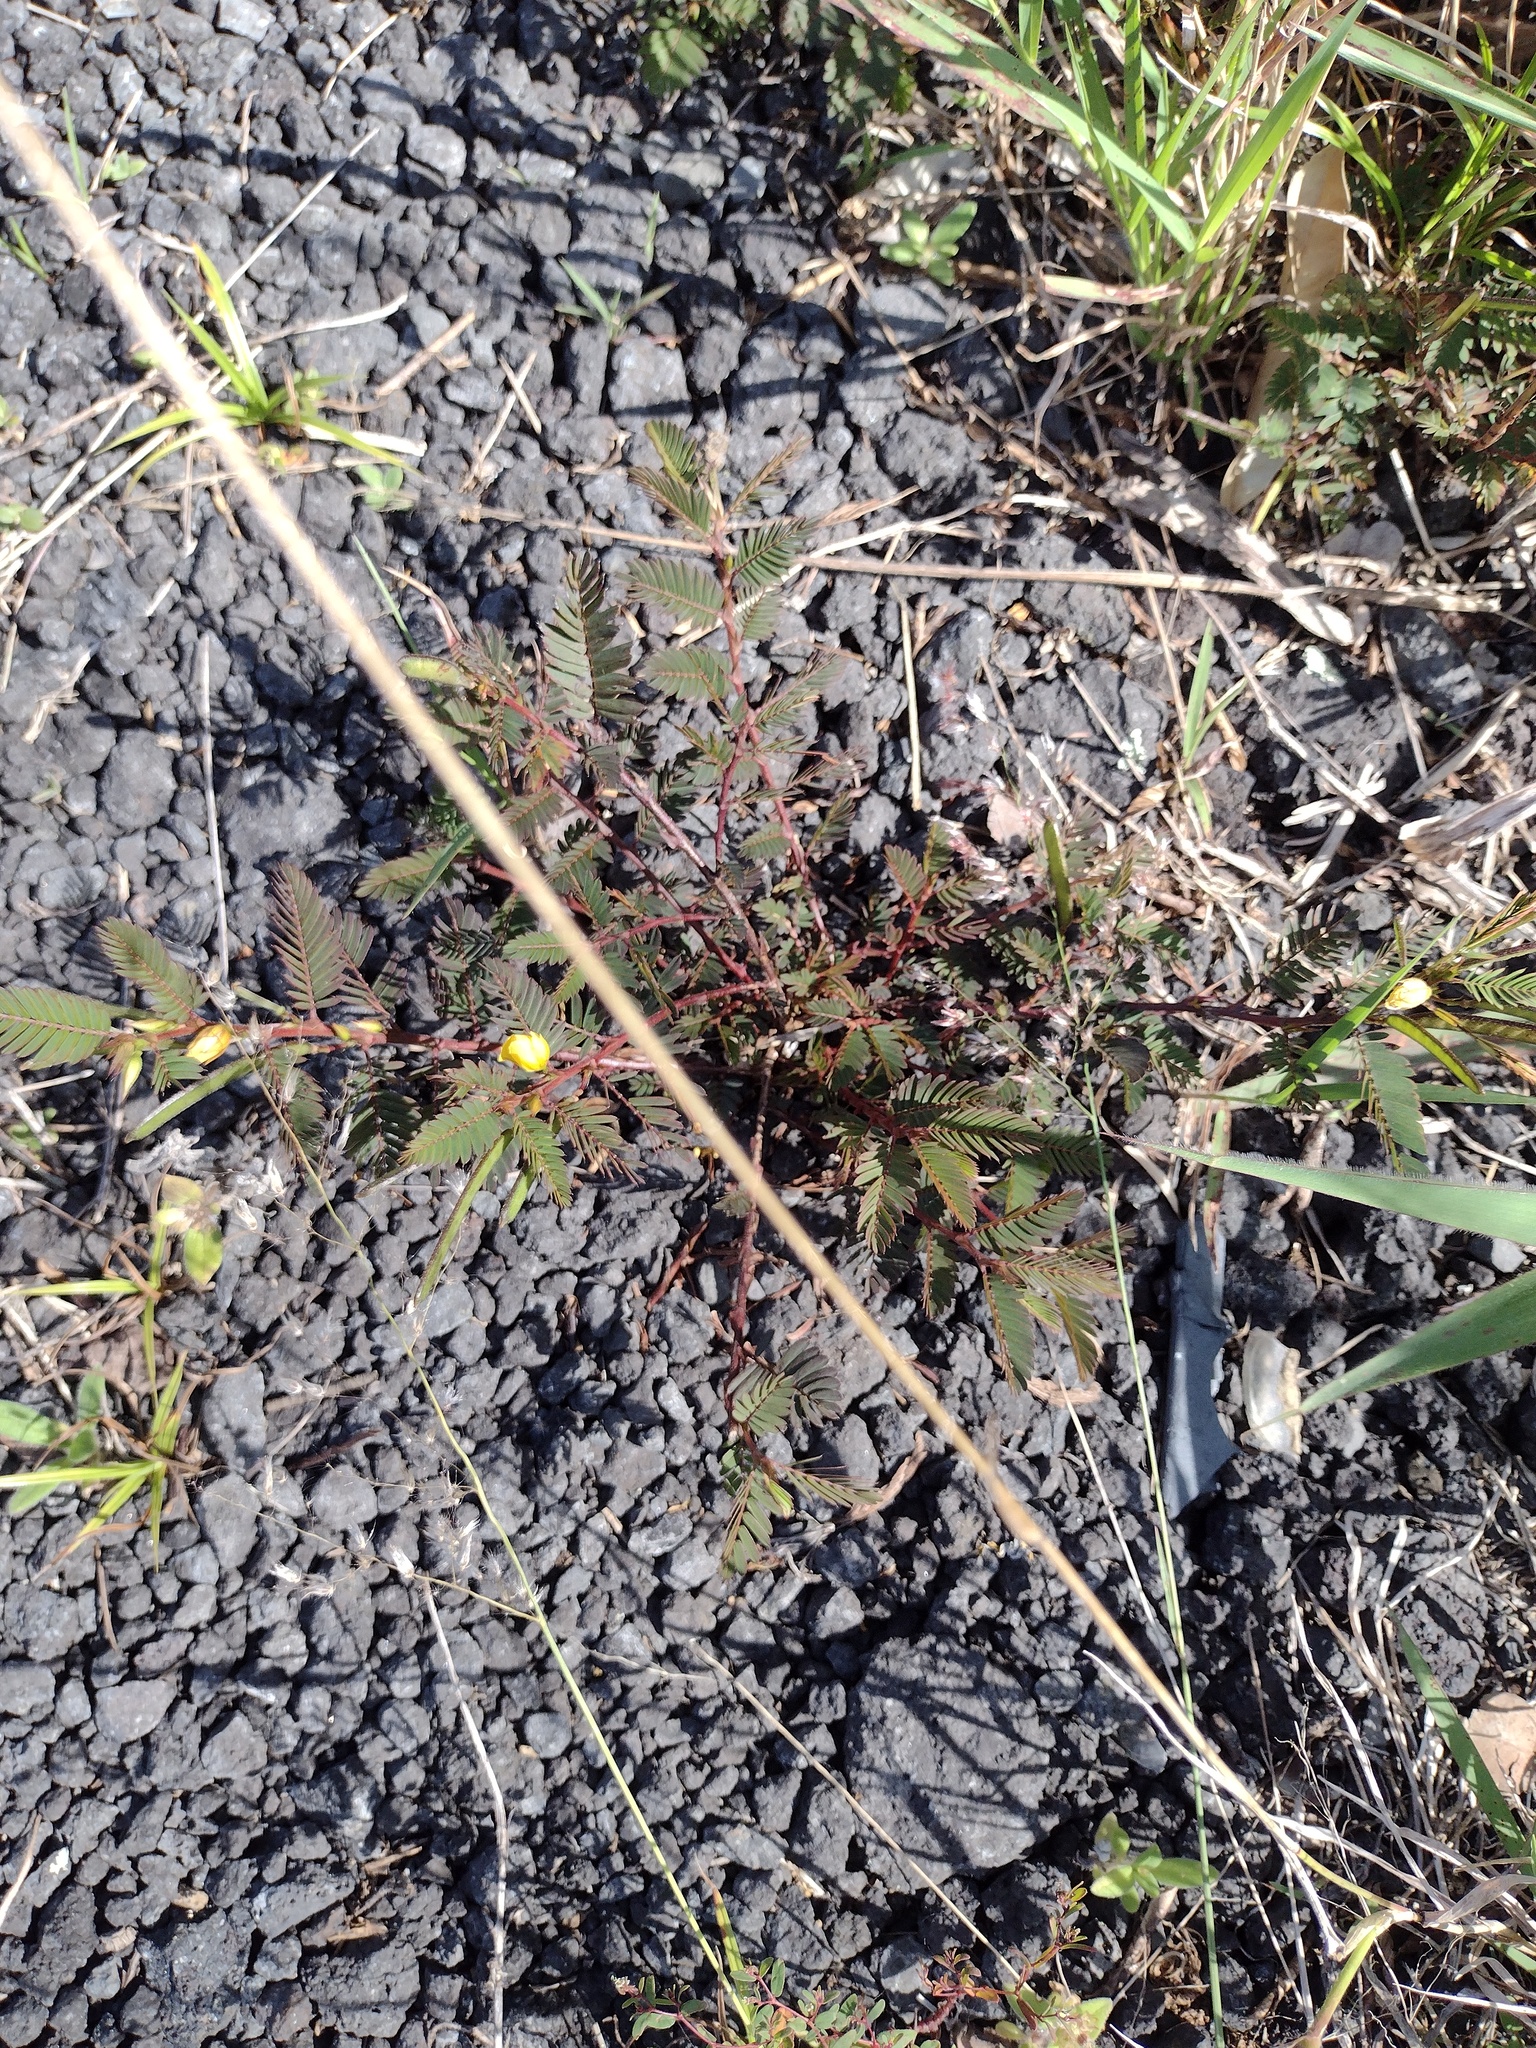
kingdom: Plantae
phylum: Tracheophyta
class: Magnoliopsida
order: Fabales
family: Fabaceae
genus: Chamaecrista
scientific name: Chamaecrista nictitans
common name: Sensitive cassia
